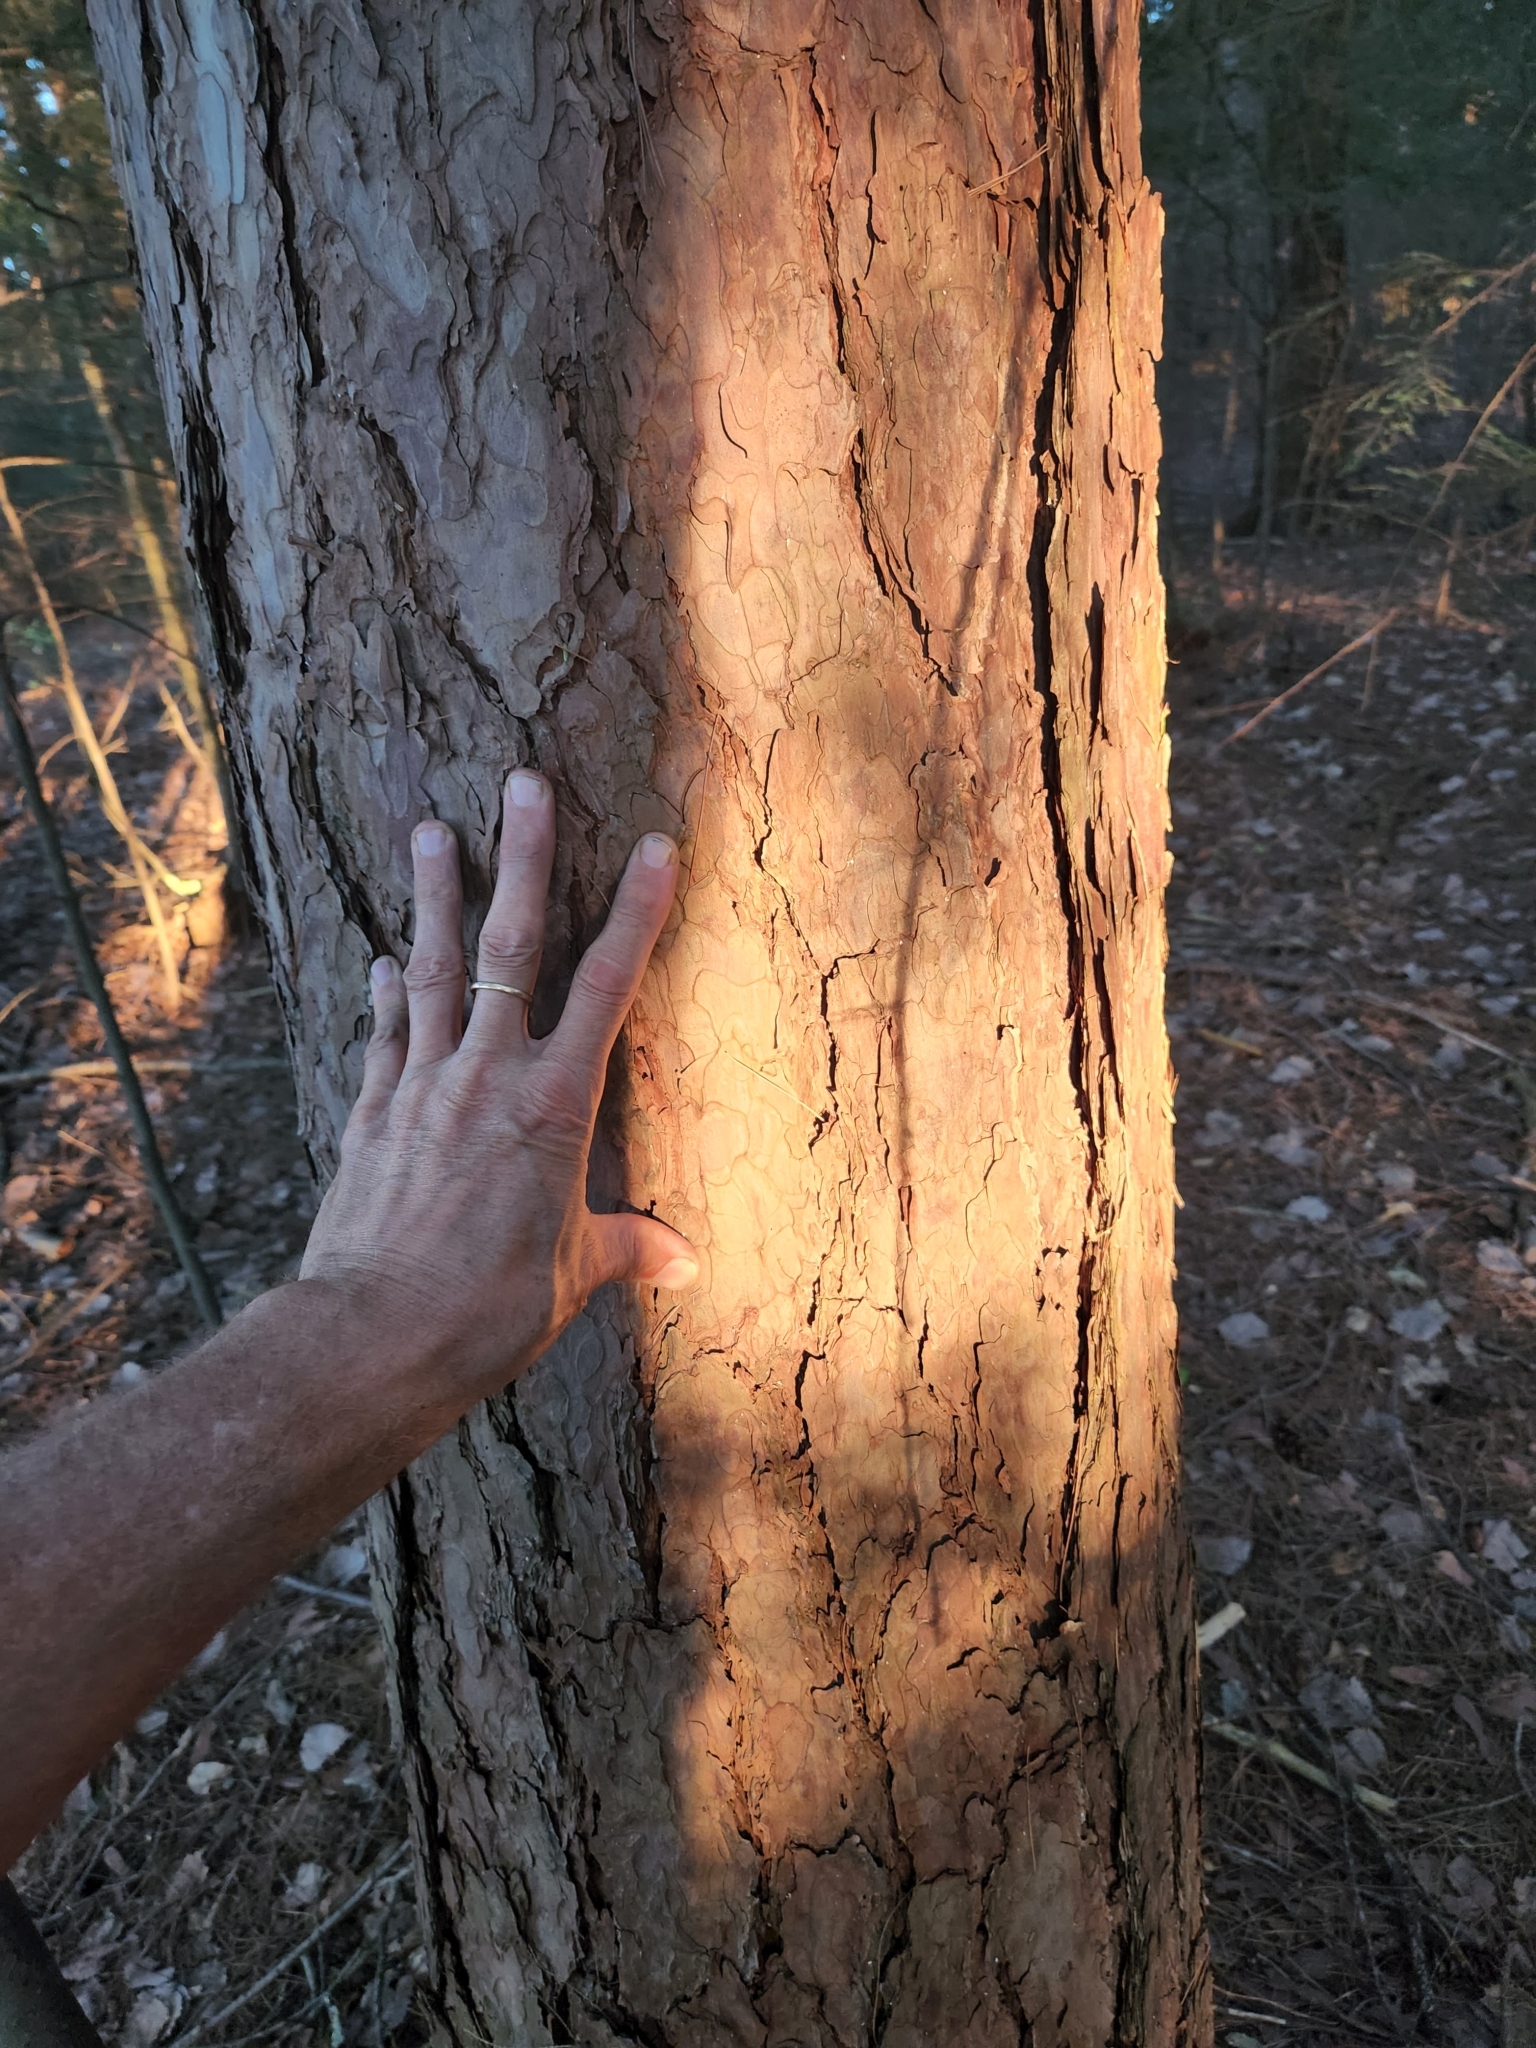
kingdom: Plantae
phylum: Tracheophyta
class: Pinopsida
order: Pinales
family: Pinaceae
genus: Pinus
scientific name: Pinus resinosa
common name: Norway pine
